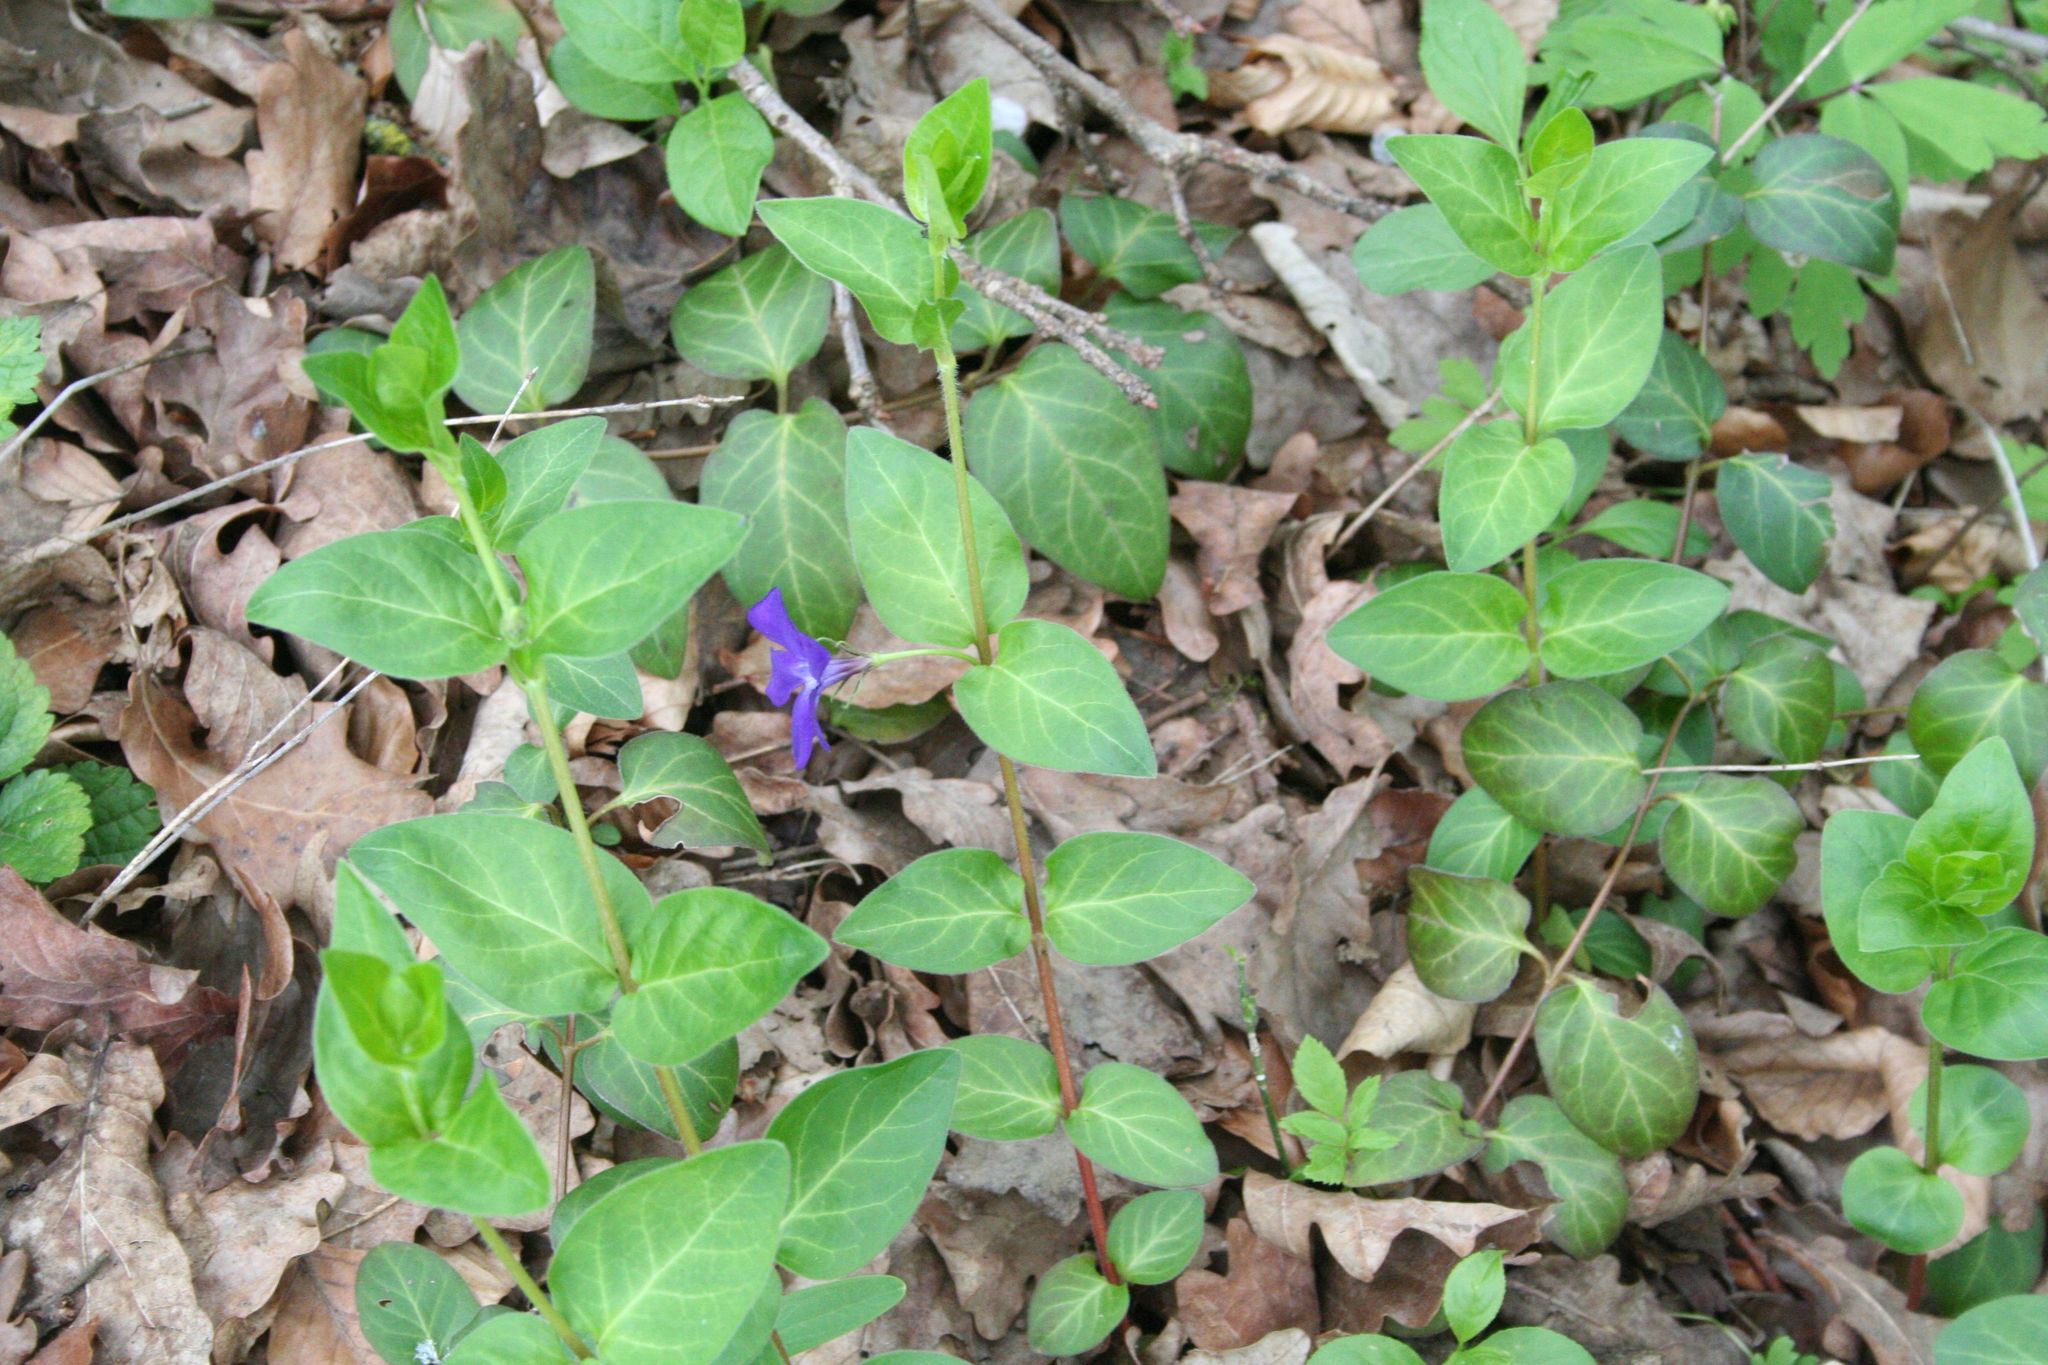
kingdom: Plantae
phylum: Tracheophyta
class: Magnoliopsida
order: Gentianales
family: Apocynaceae
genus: Vinca
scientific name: Vinca major
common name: Greater periwinkle
